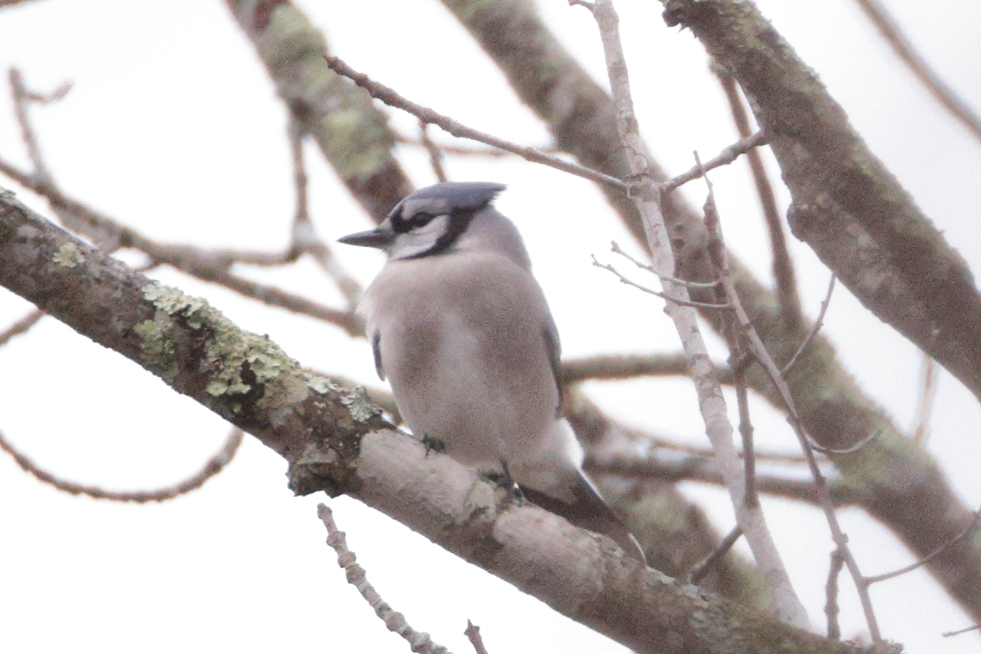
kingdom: Animalia
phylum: Chordata
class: Aves
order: Passeriformes
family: Corvidae
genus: Cyanocitta
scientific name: Cyanocitta cristata
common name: Blue jay
